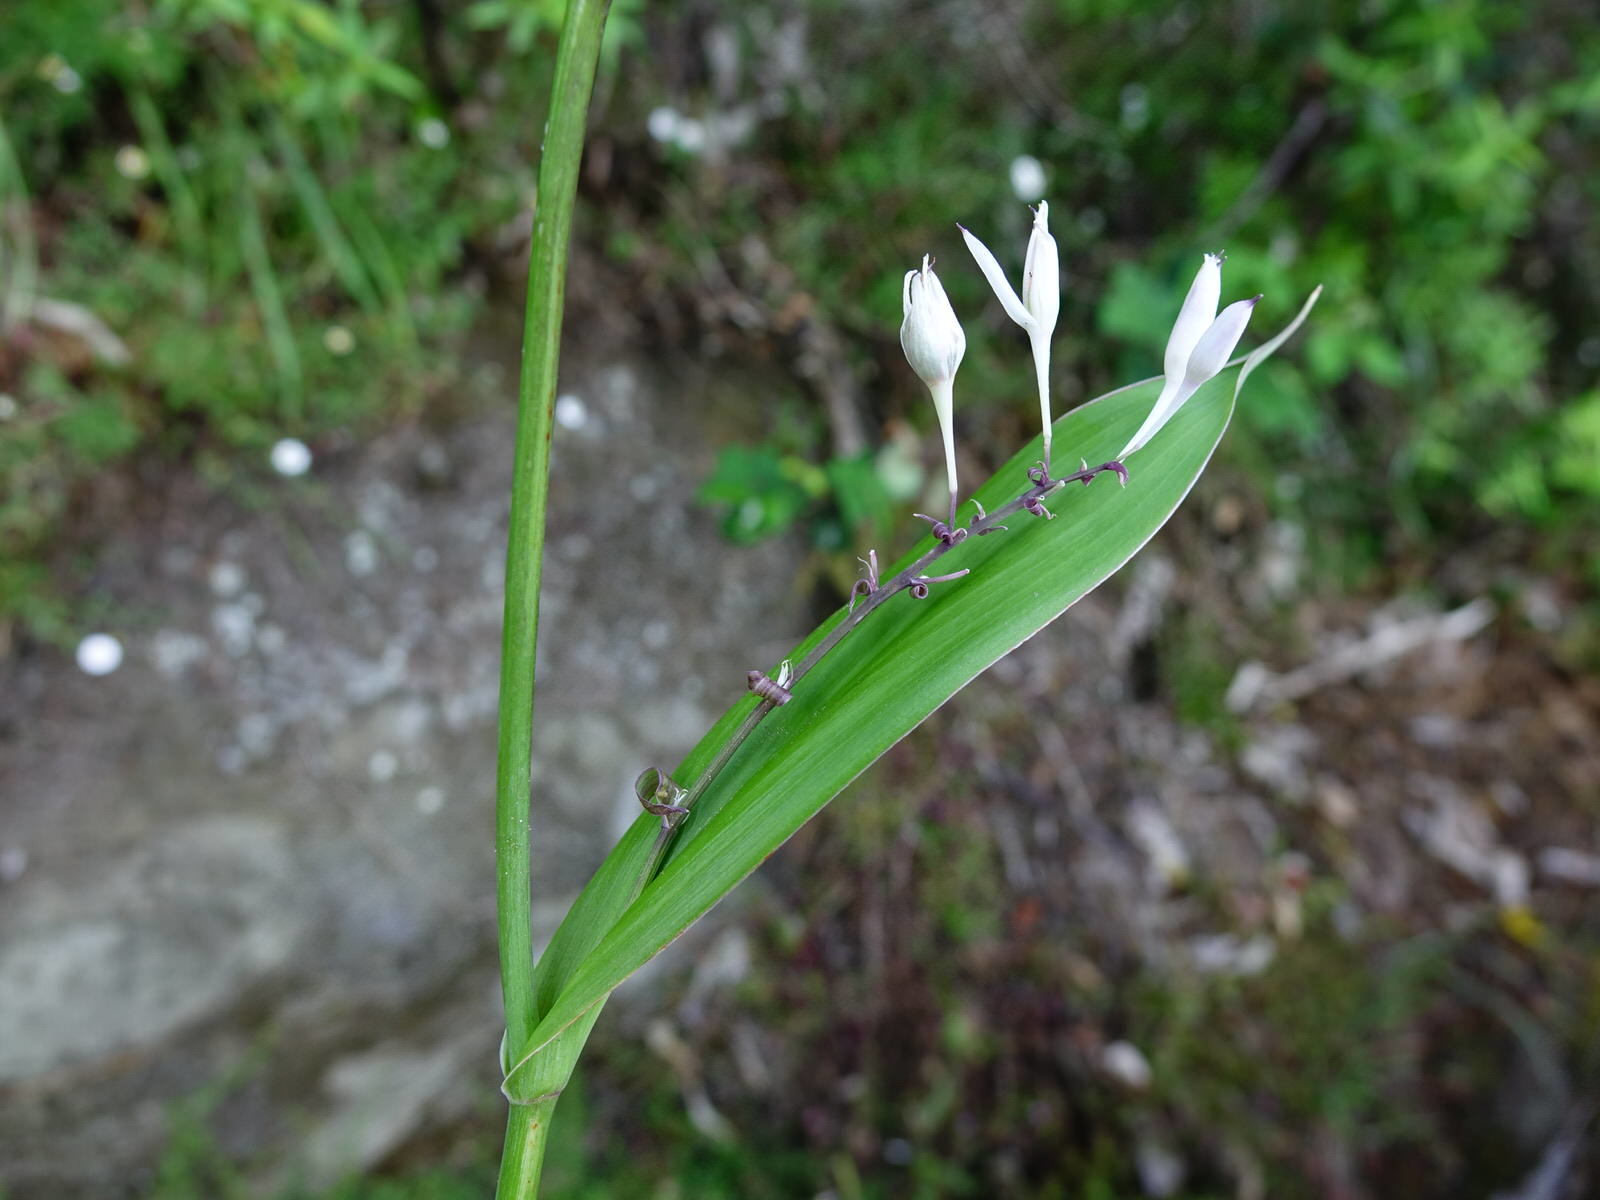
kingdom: Plantae
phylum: Tracheophyta
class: Liliopsida
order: Asparagales
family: Asparagaceae
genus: Arthropodium
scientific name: Arthropodium cirratum
